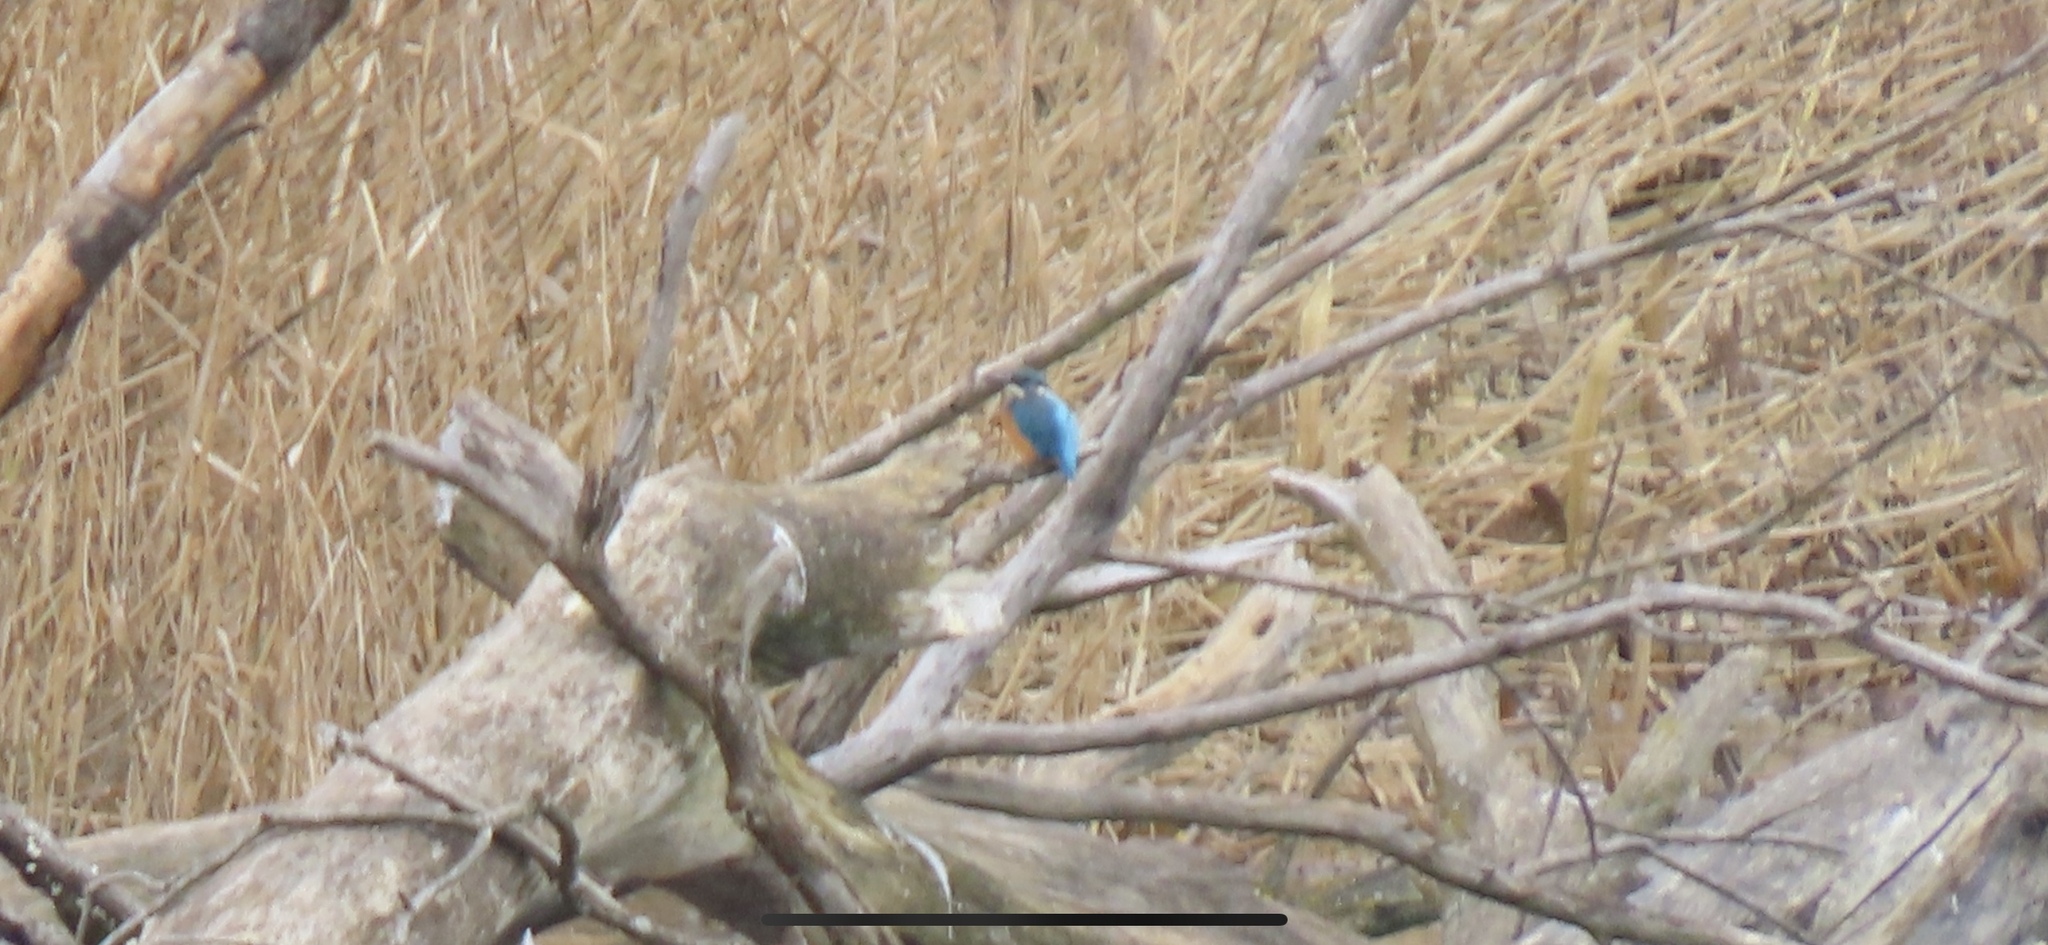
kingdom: Animalia
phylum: Chordata
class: Aves
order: Coraciiformes
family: Alcedinidae
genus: Alcedo
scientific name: Alcedo atthis
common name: Common kingfisher
